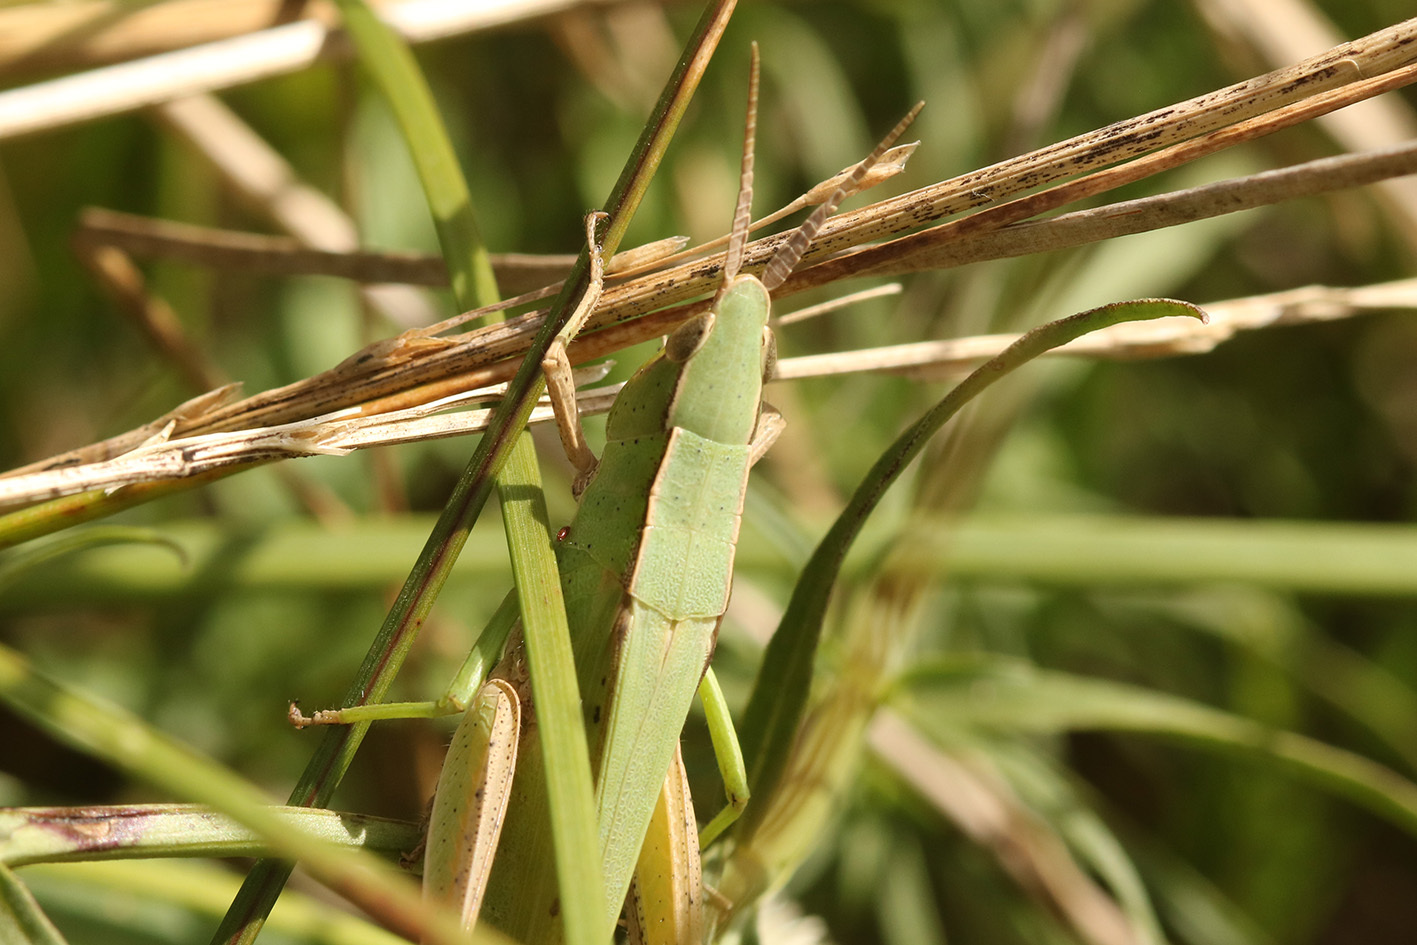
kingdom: Animalia
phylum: Arthropoda
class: Insecta
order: Orthoptera
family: Acrididae
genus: Metaleptea
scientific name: Metaleptea adspersa
